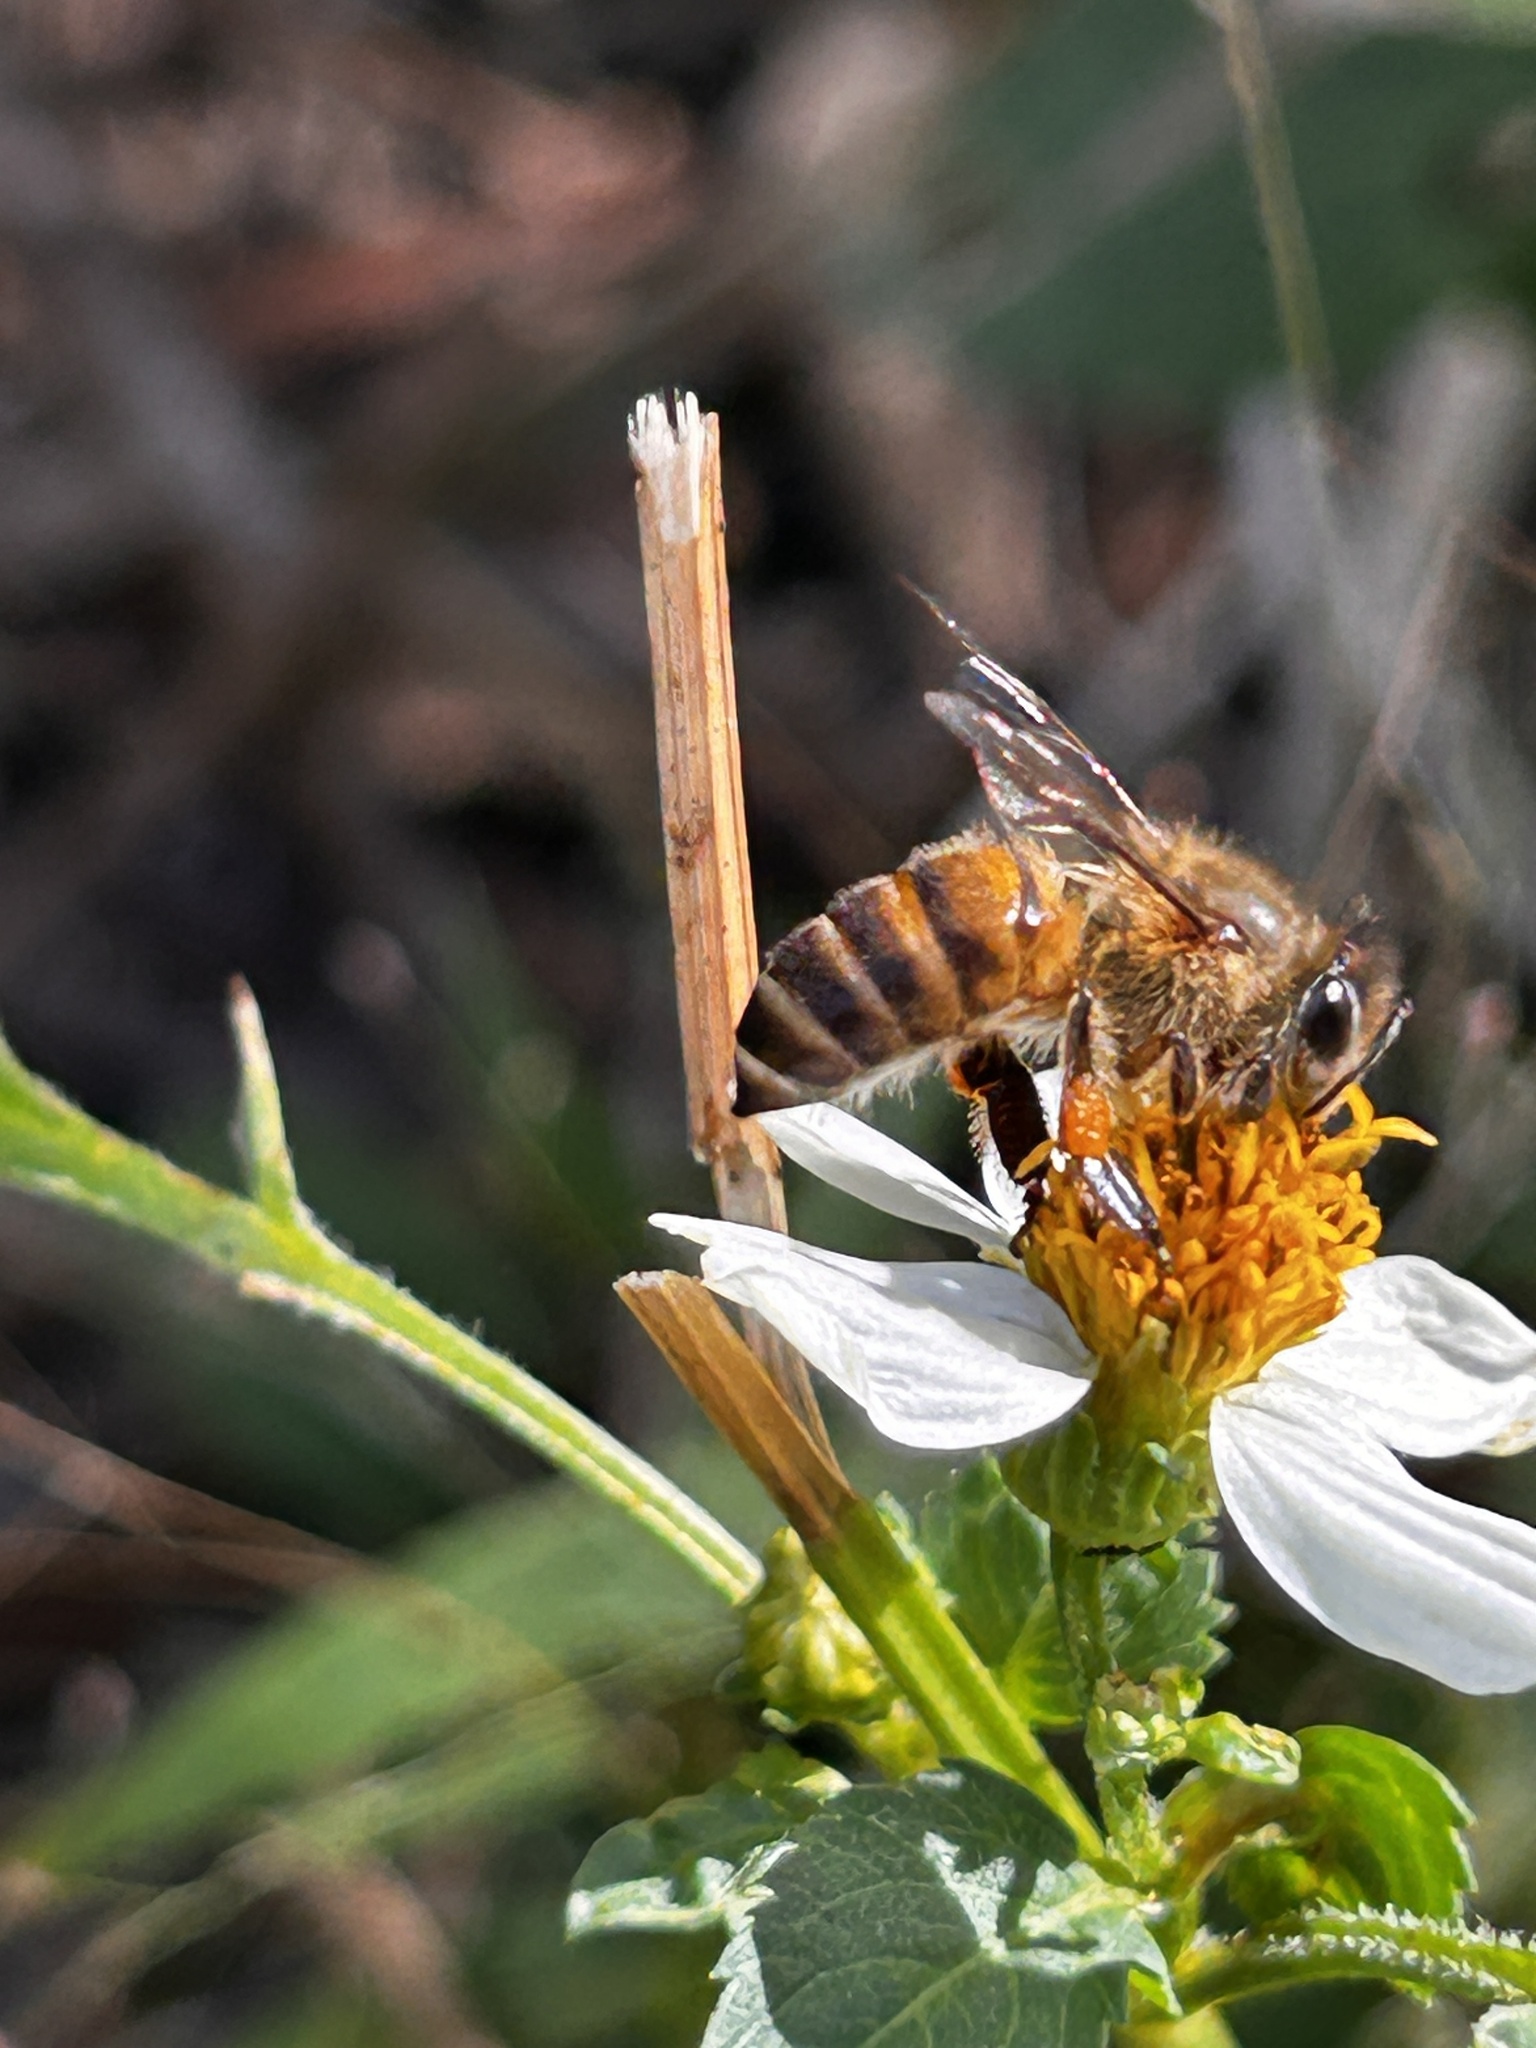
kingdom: Animalia
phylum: Arthropoda
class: Insecta
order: Hymenoptera
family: Apidae
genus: Apis
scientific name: Apis cerana
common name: Honey bee
